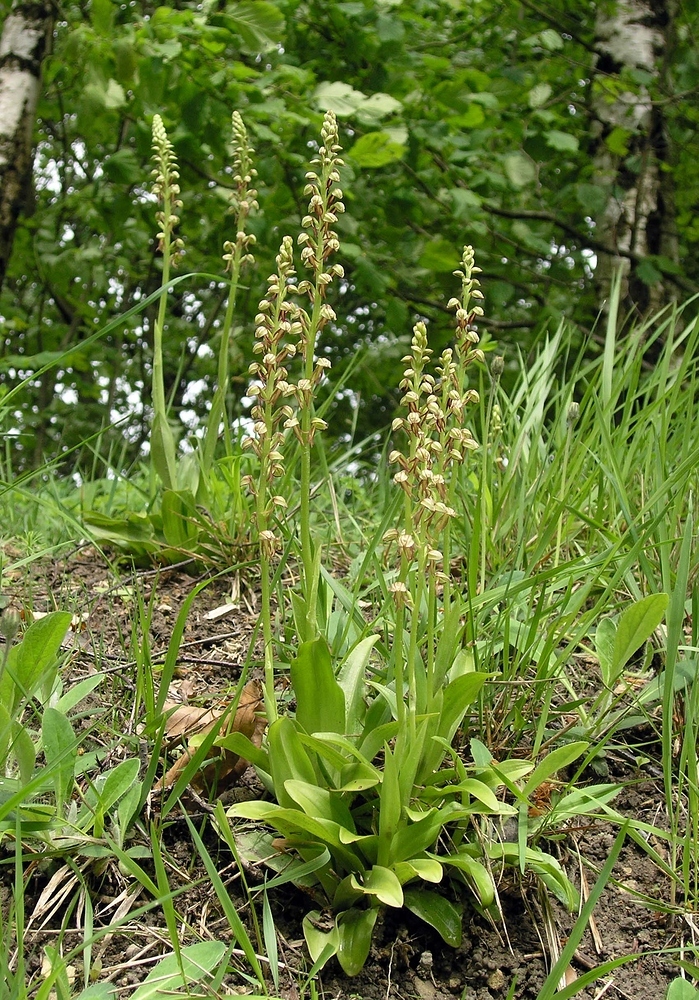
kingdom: Plantae
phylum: Tracheophyta
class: Liliopsida
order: Asparagales
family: Orchidaceae
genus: Orchis
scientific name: Orchis anthropophora
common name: Man orchid
